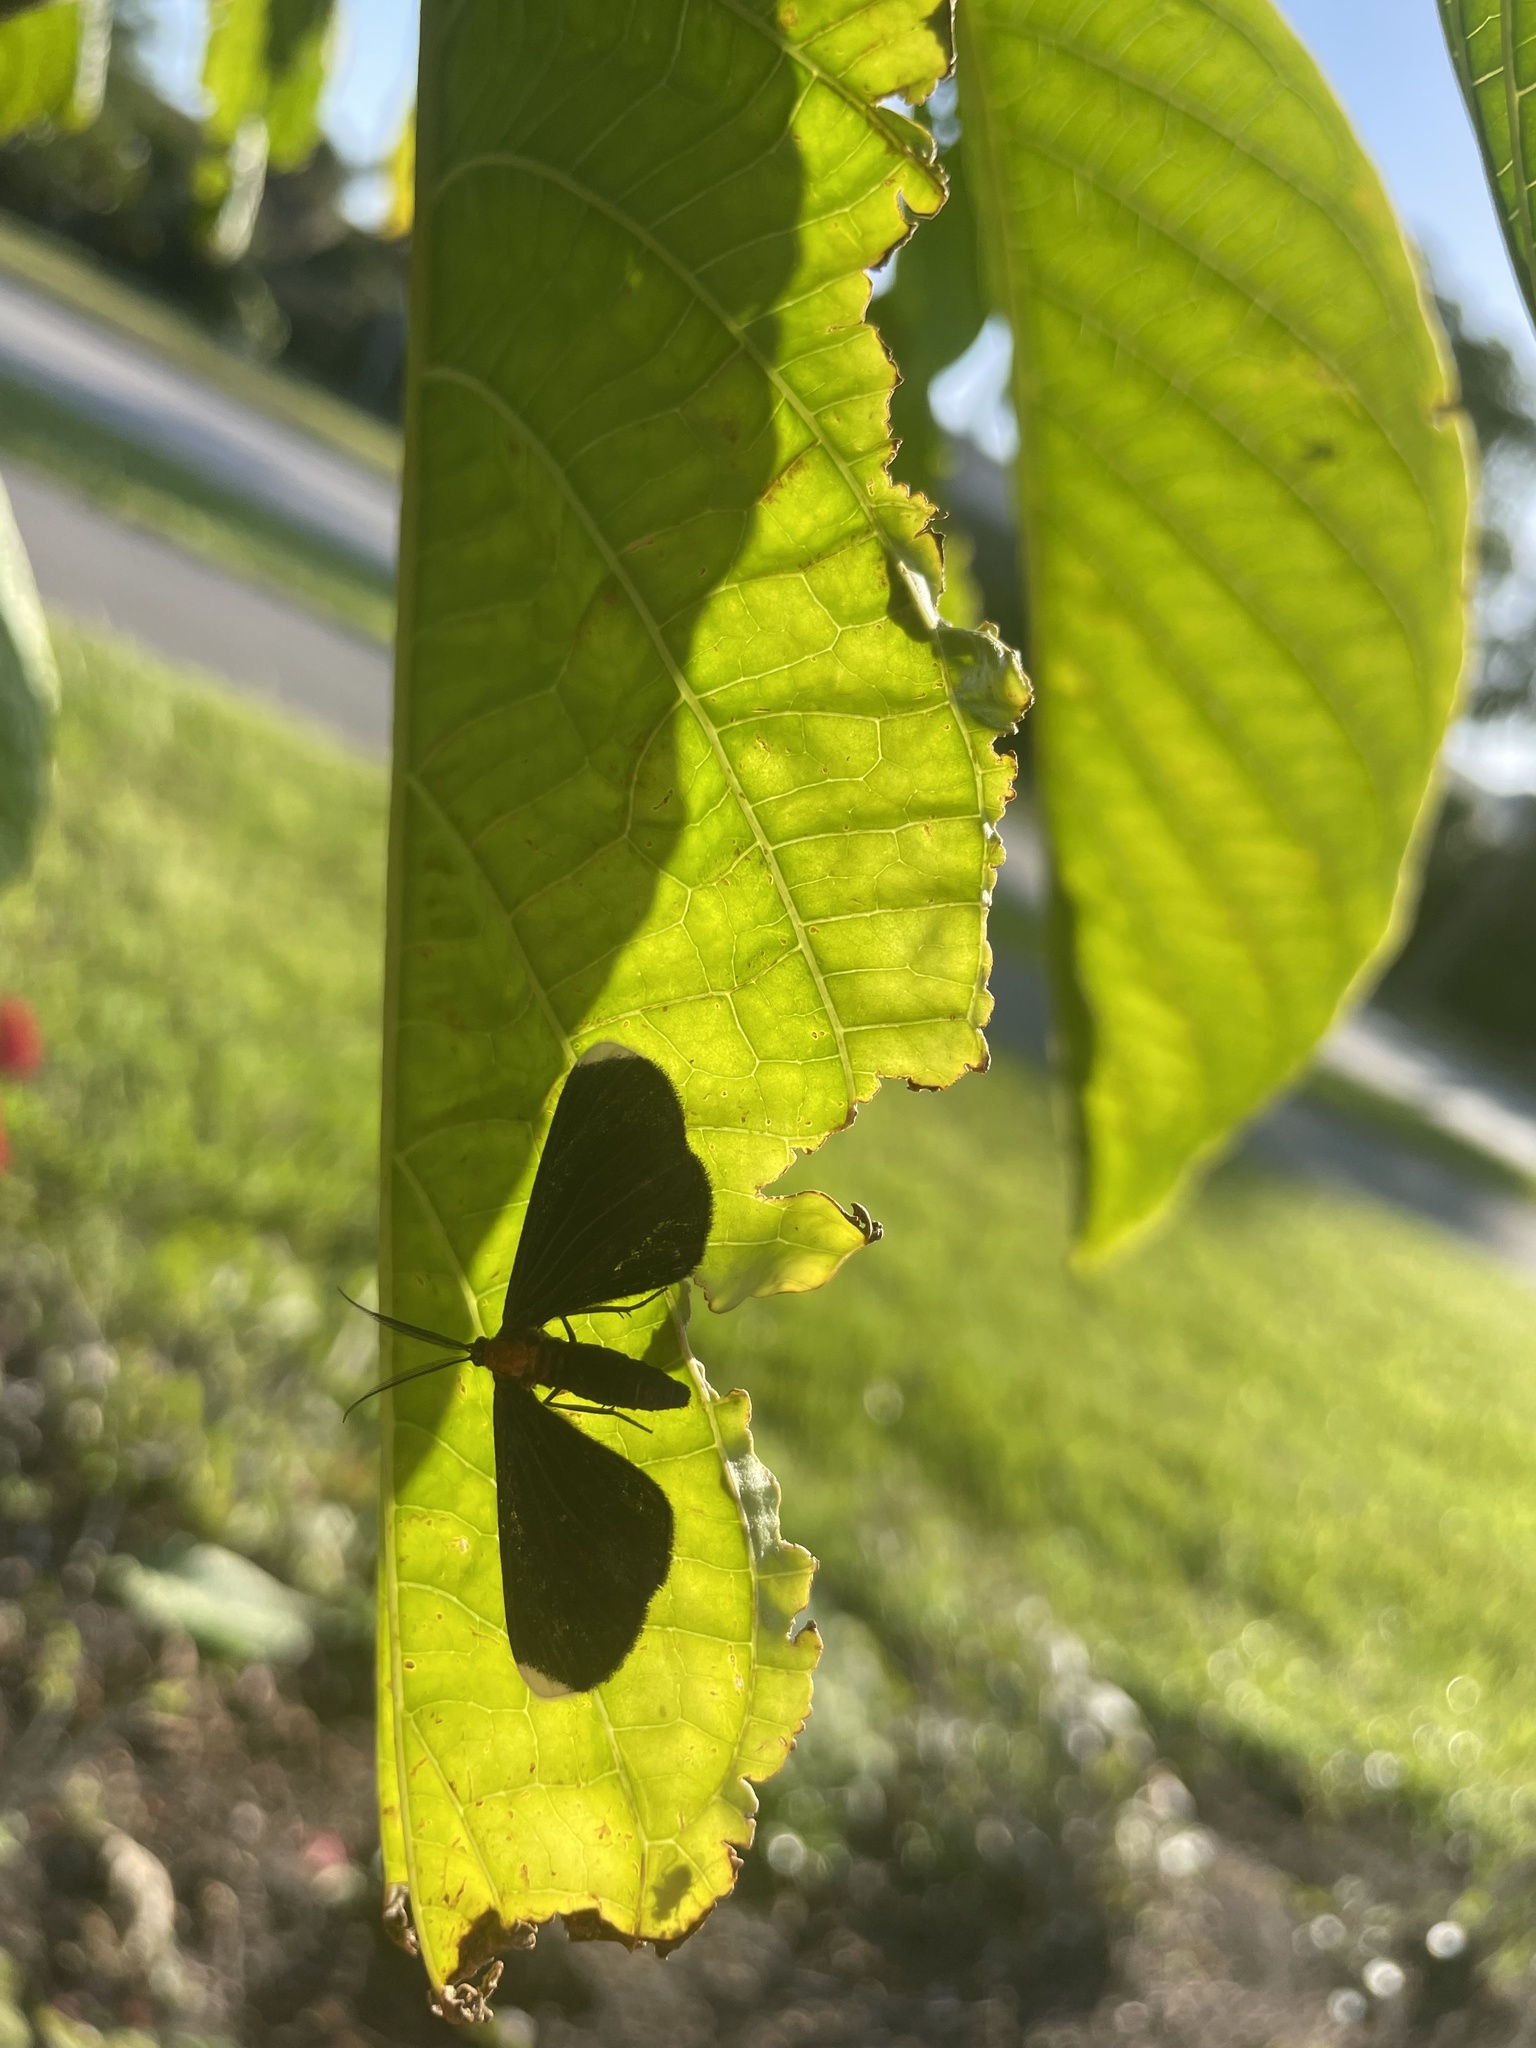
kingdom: Animalia
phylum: Arthropoda
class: Insecta
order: Lepidoptera
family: Geometridae
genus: Melanchroia
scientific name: Melanchroia chephise
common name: White-tipped black
